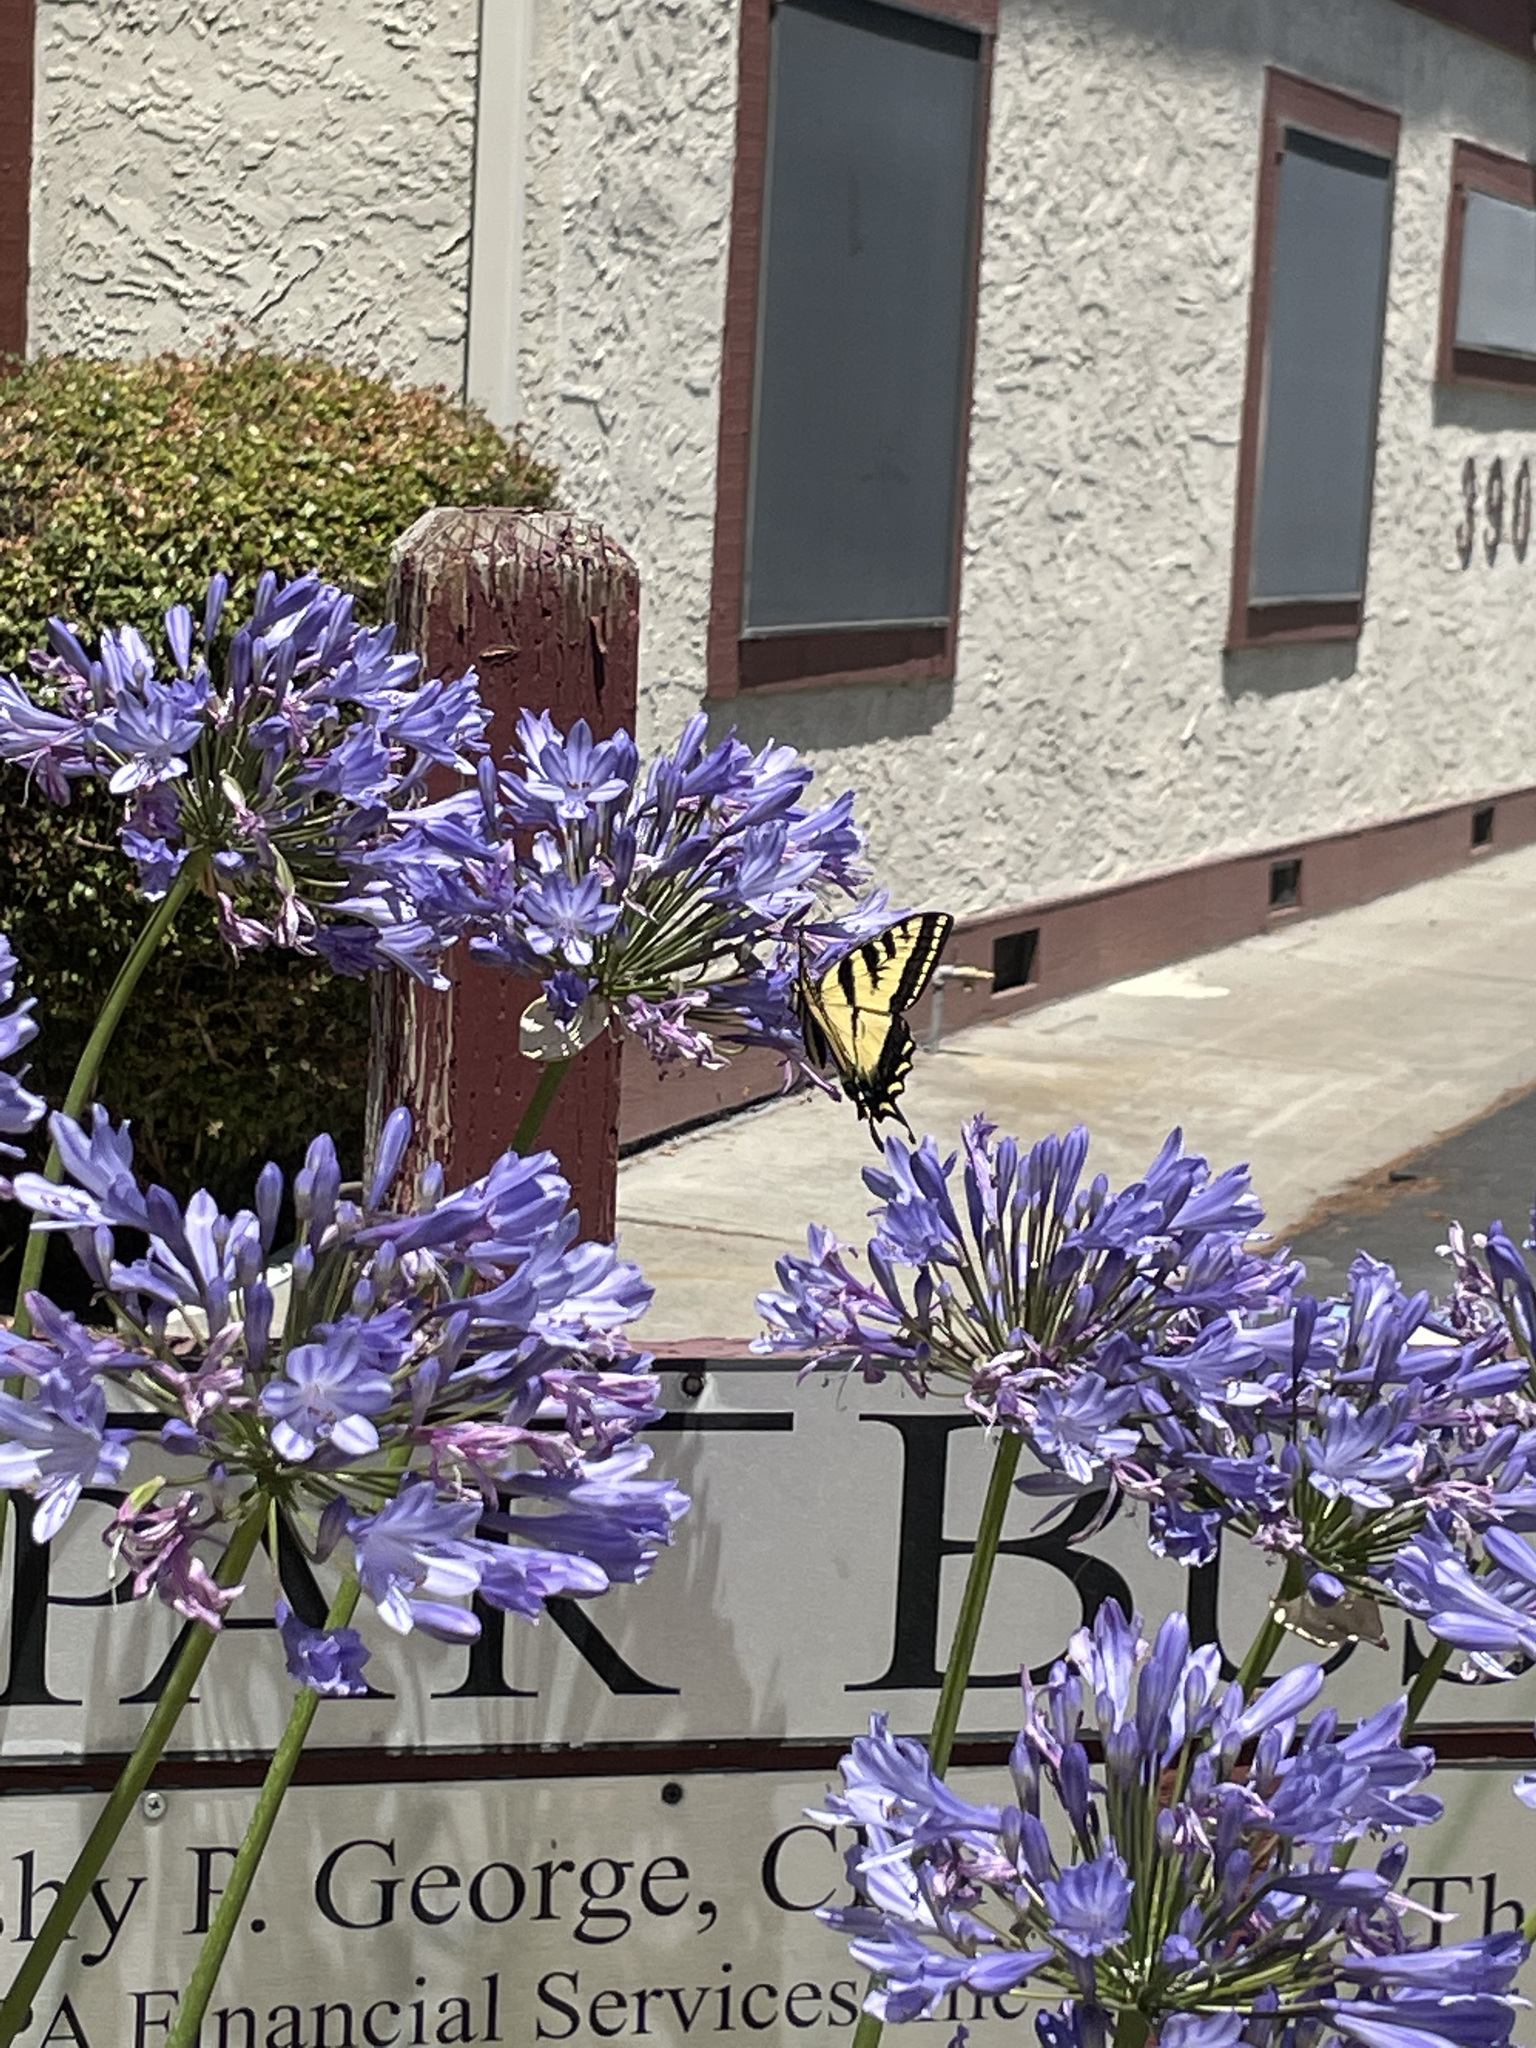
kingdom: Animalia
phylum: Arthropoda
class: Insecta
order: Lepidoptera
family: Papilionidae
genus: Papilio
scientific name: Papilio rutulus
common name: Western tiger swallowtail
